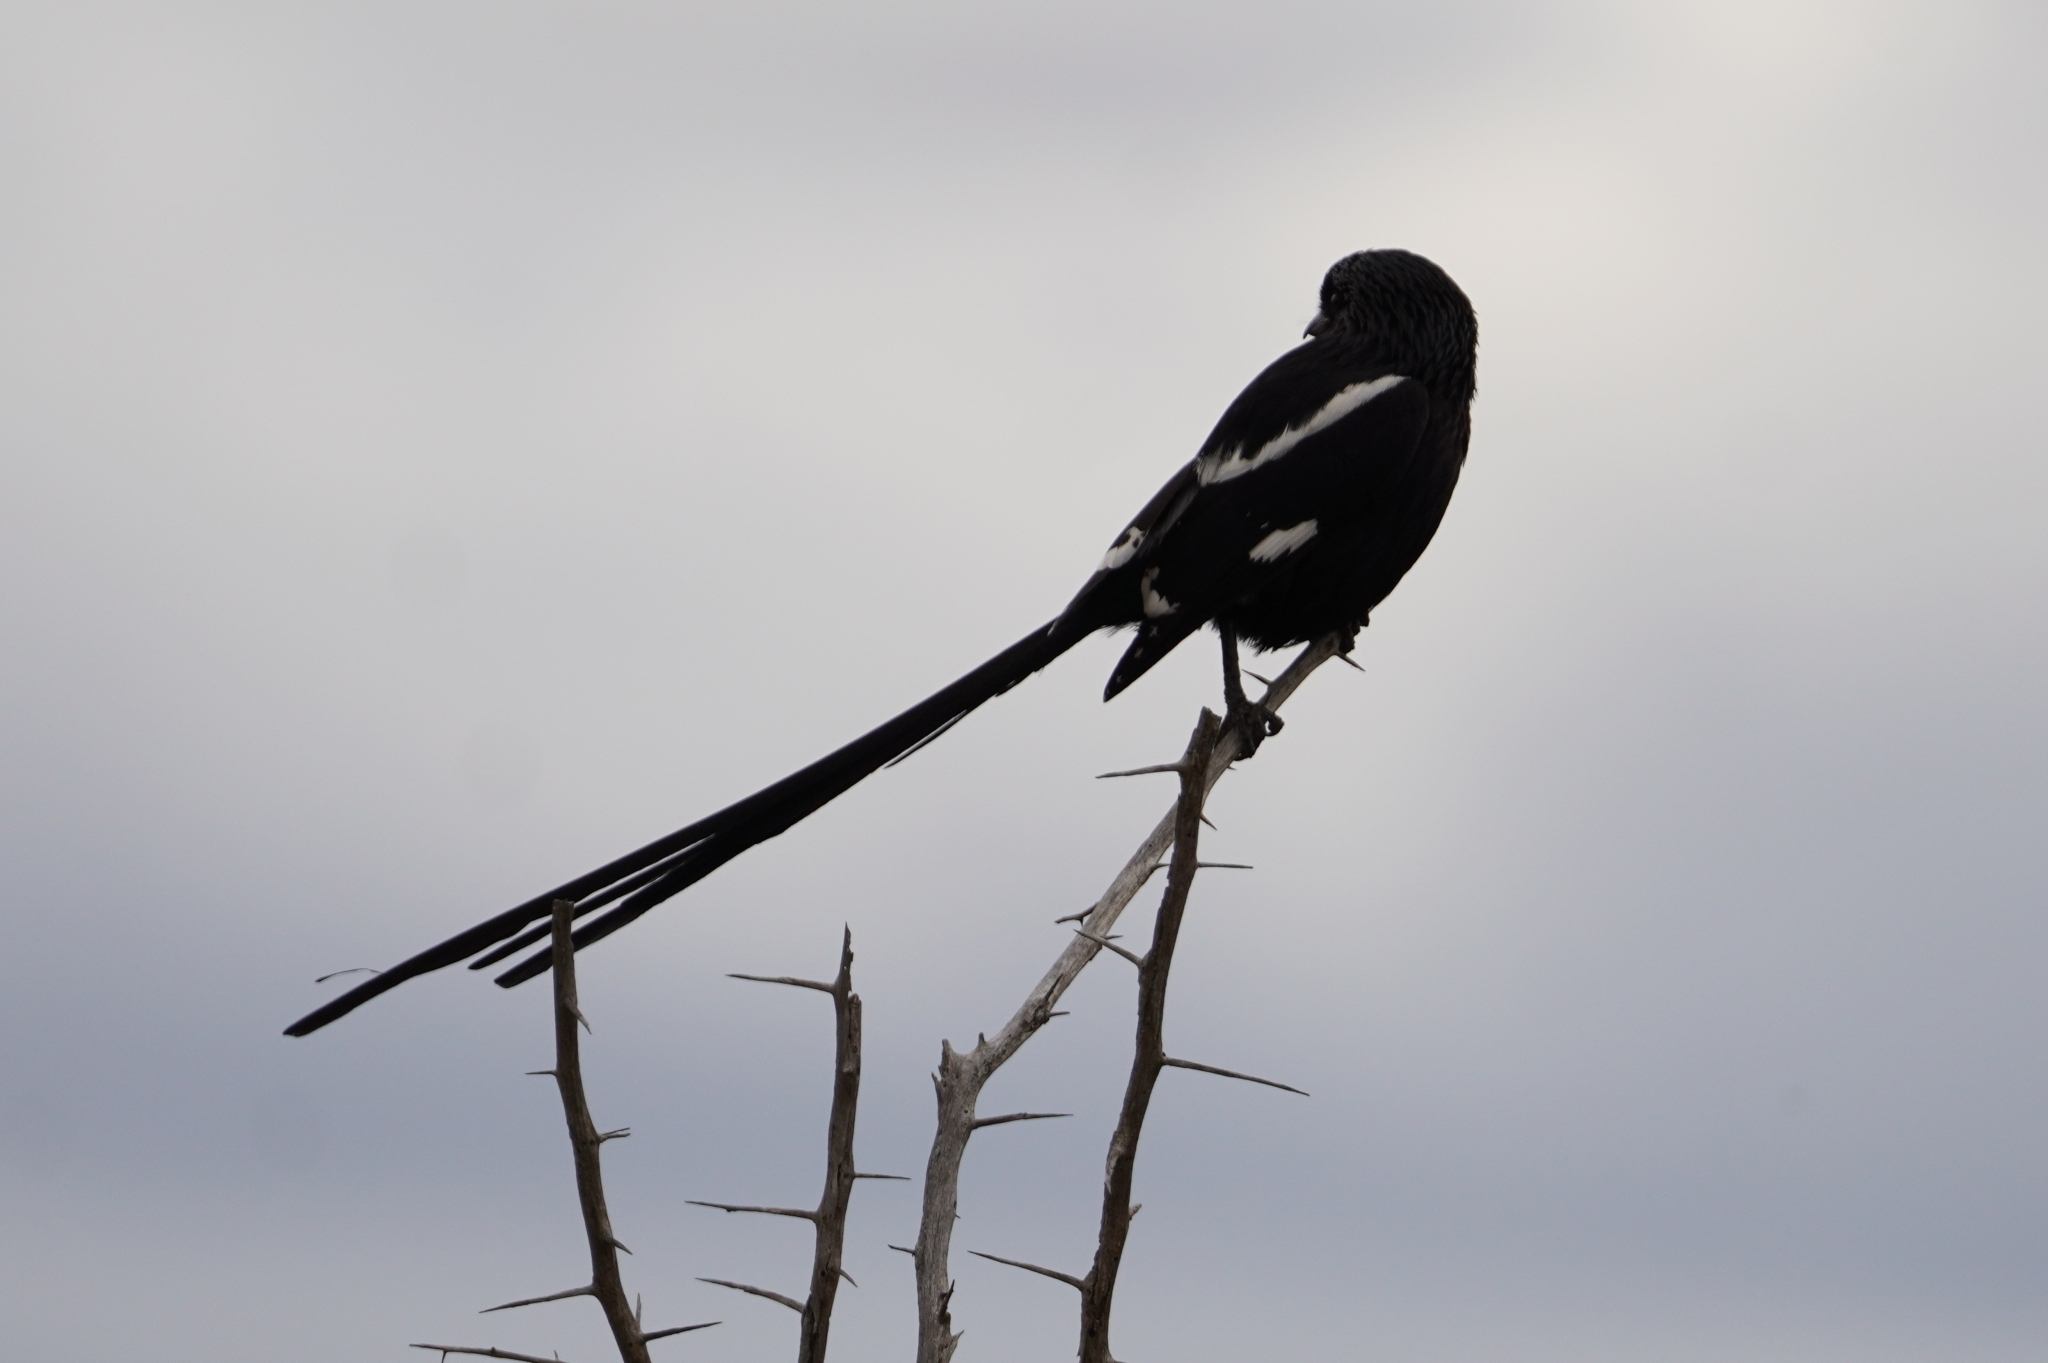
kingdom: Animalia
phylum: Chordata
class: Aves
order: Passeriformes
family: Laniidae
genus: Urolestes
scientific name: Urolestes melanoleucus
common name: Magpie shrike
